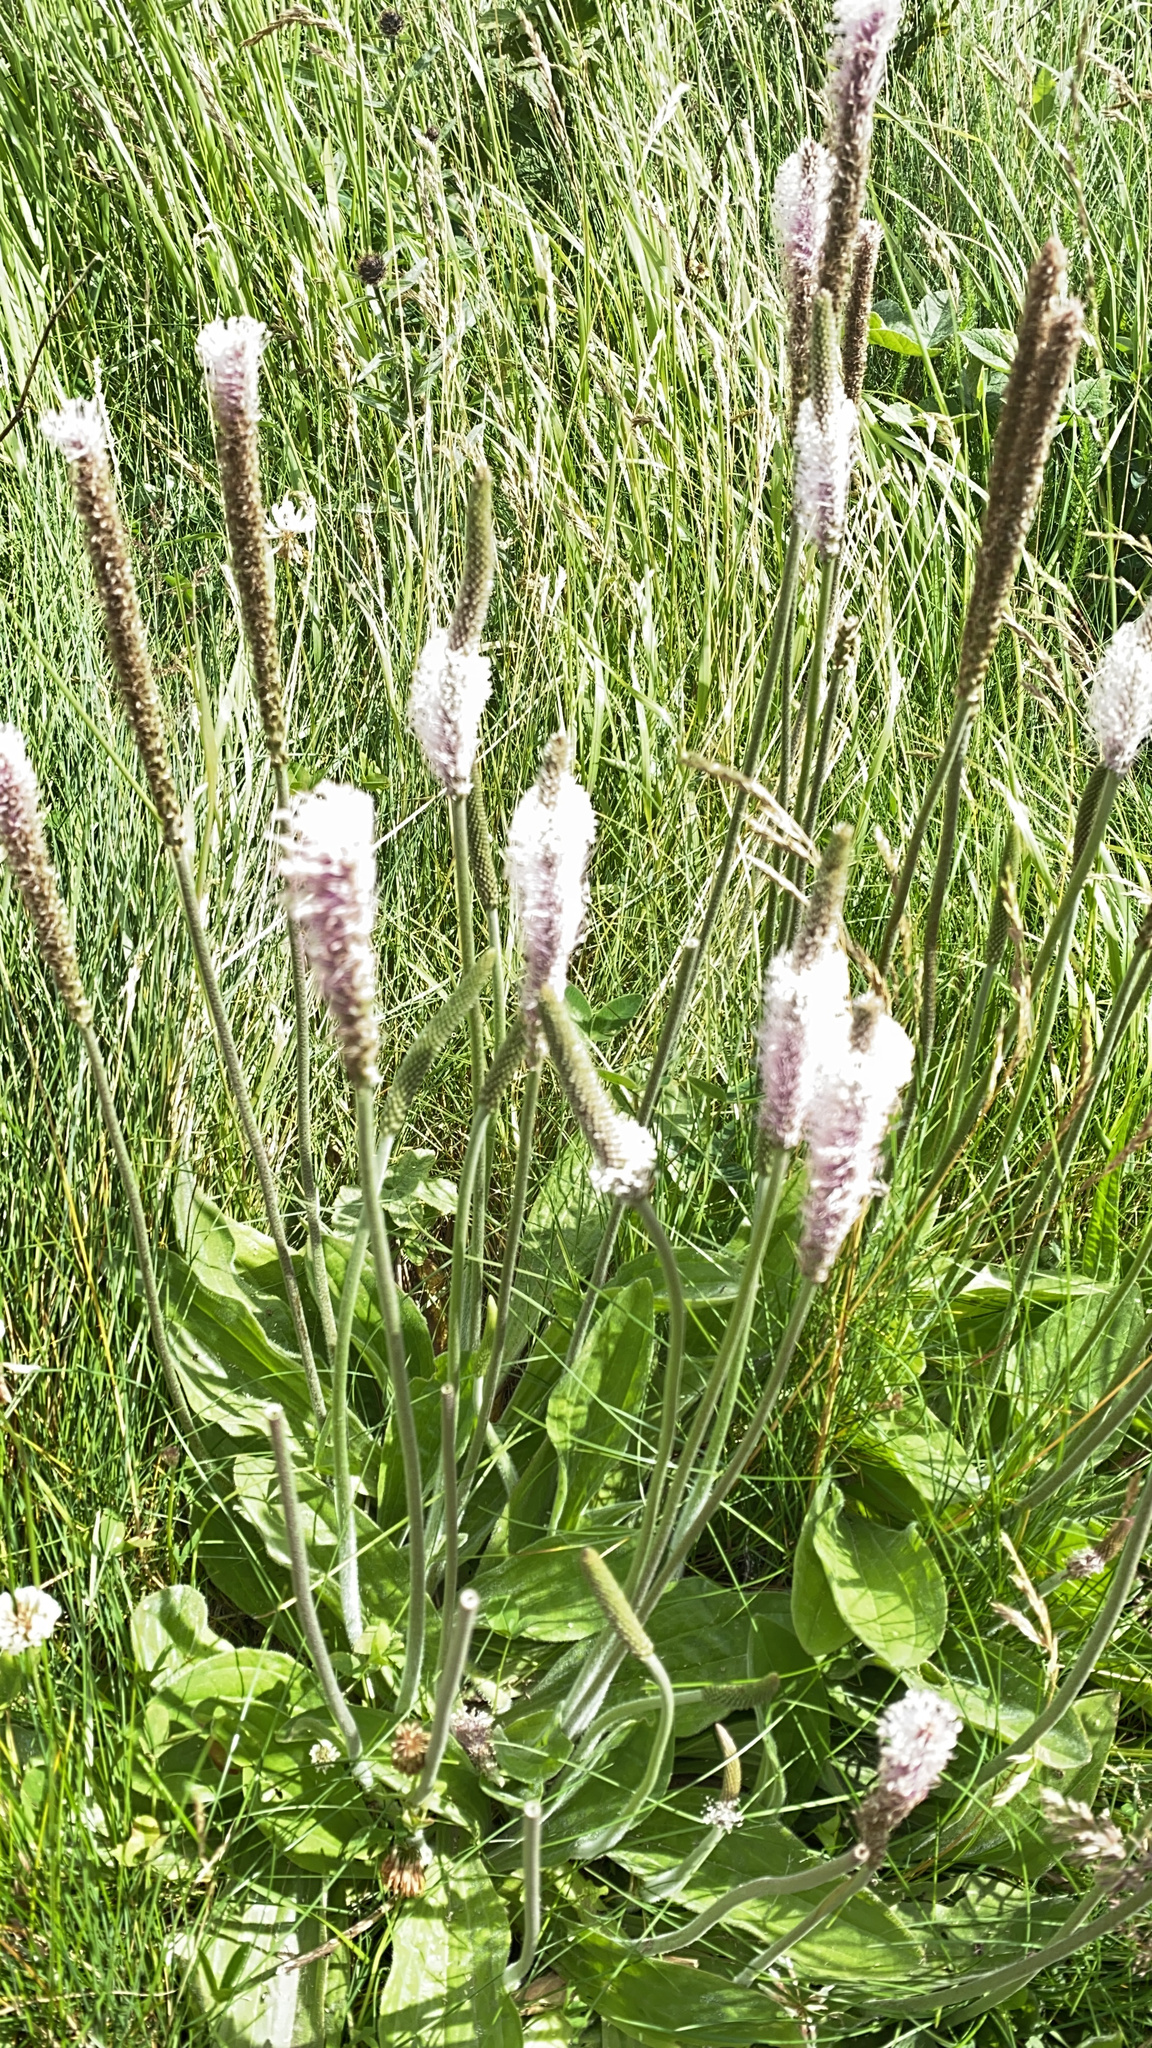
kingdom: Plantae
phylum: Tracheophyta
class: Magnoliopsida
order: Lamiales
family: Plantaginaceae
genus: Plantago
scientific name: Plantago media
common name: Hoary plantain
